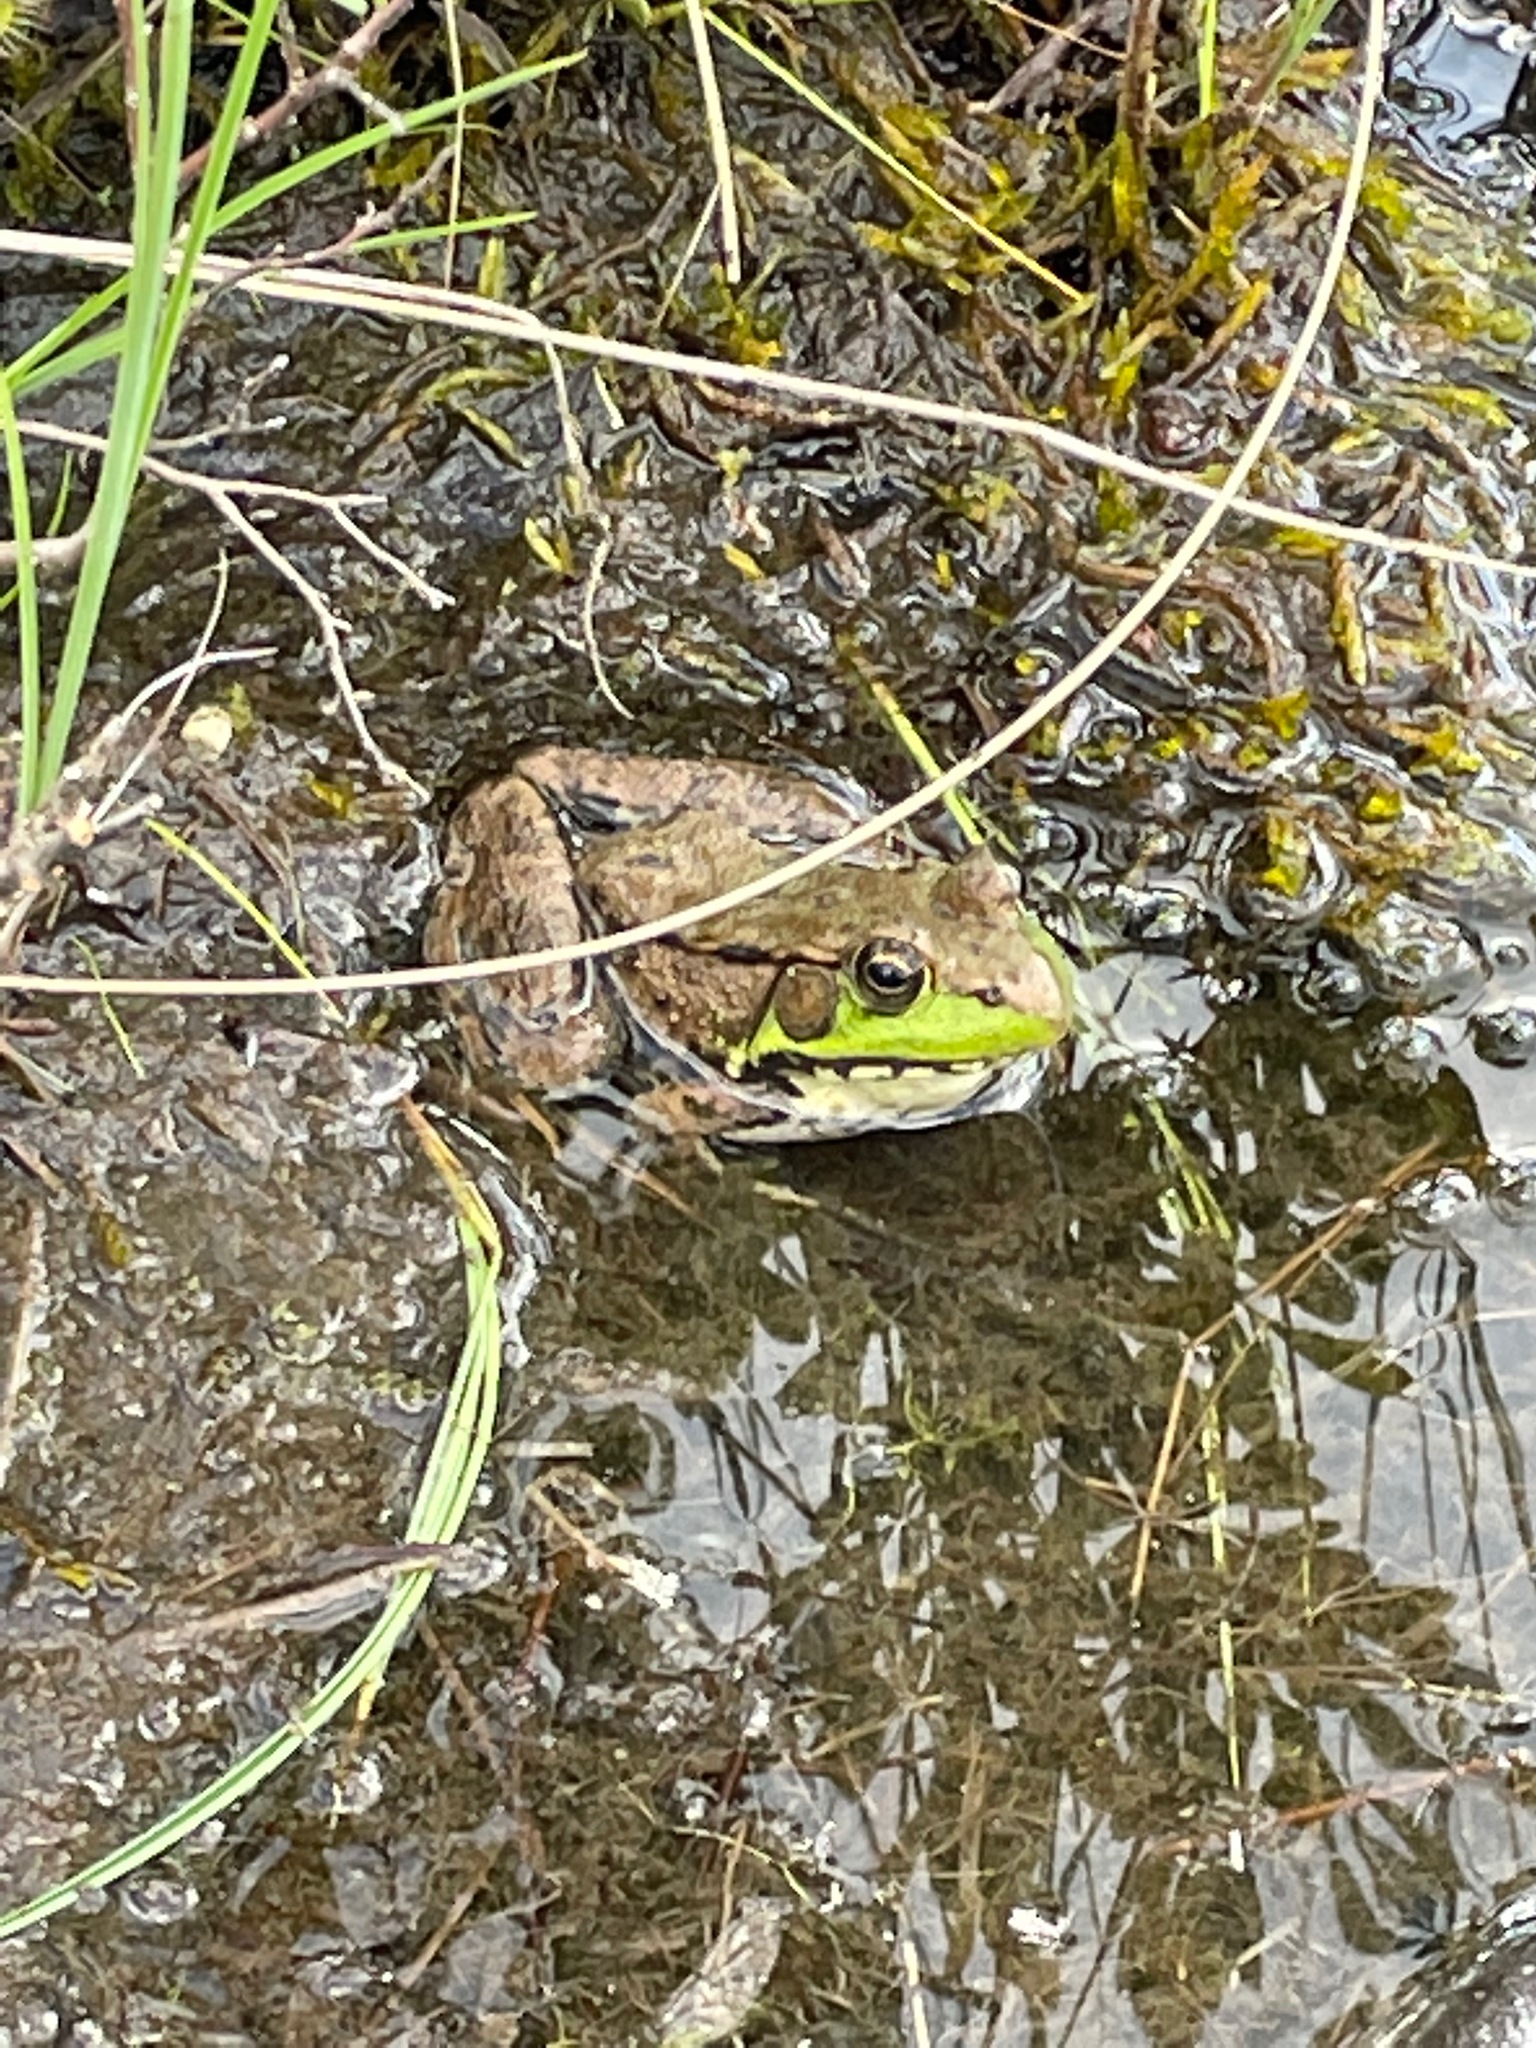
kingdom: Animalia
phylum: Chordata
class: Amphibia
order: Anura
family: Ranidae
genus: Lithobates
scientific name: Lithobates clamitans
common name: Green frog
